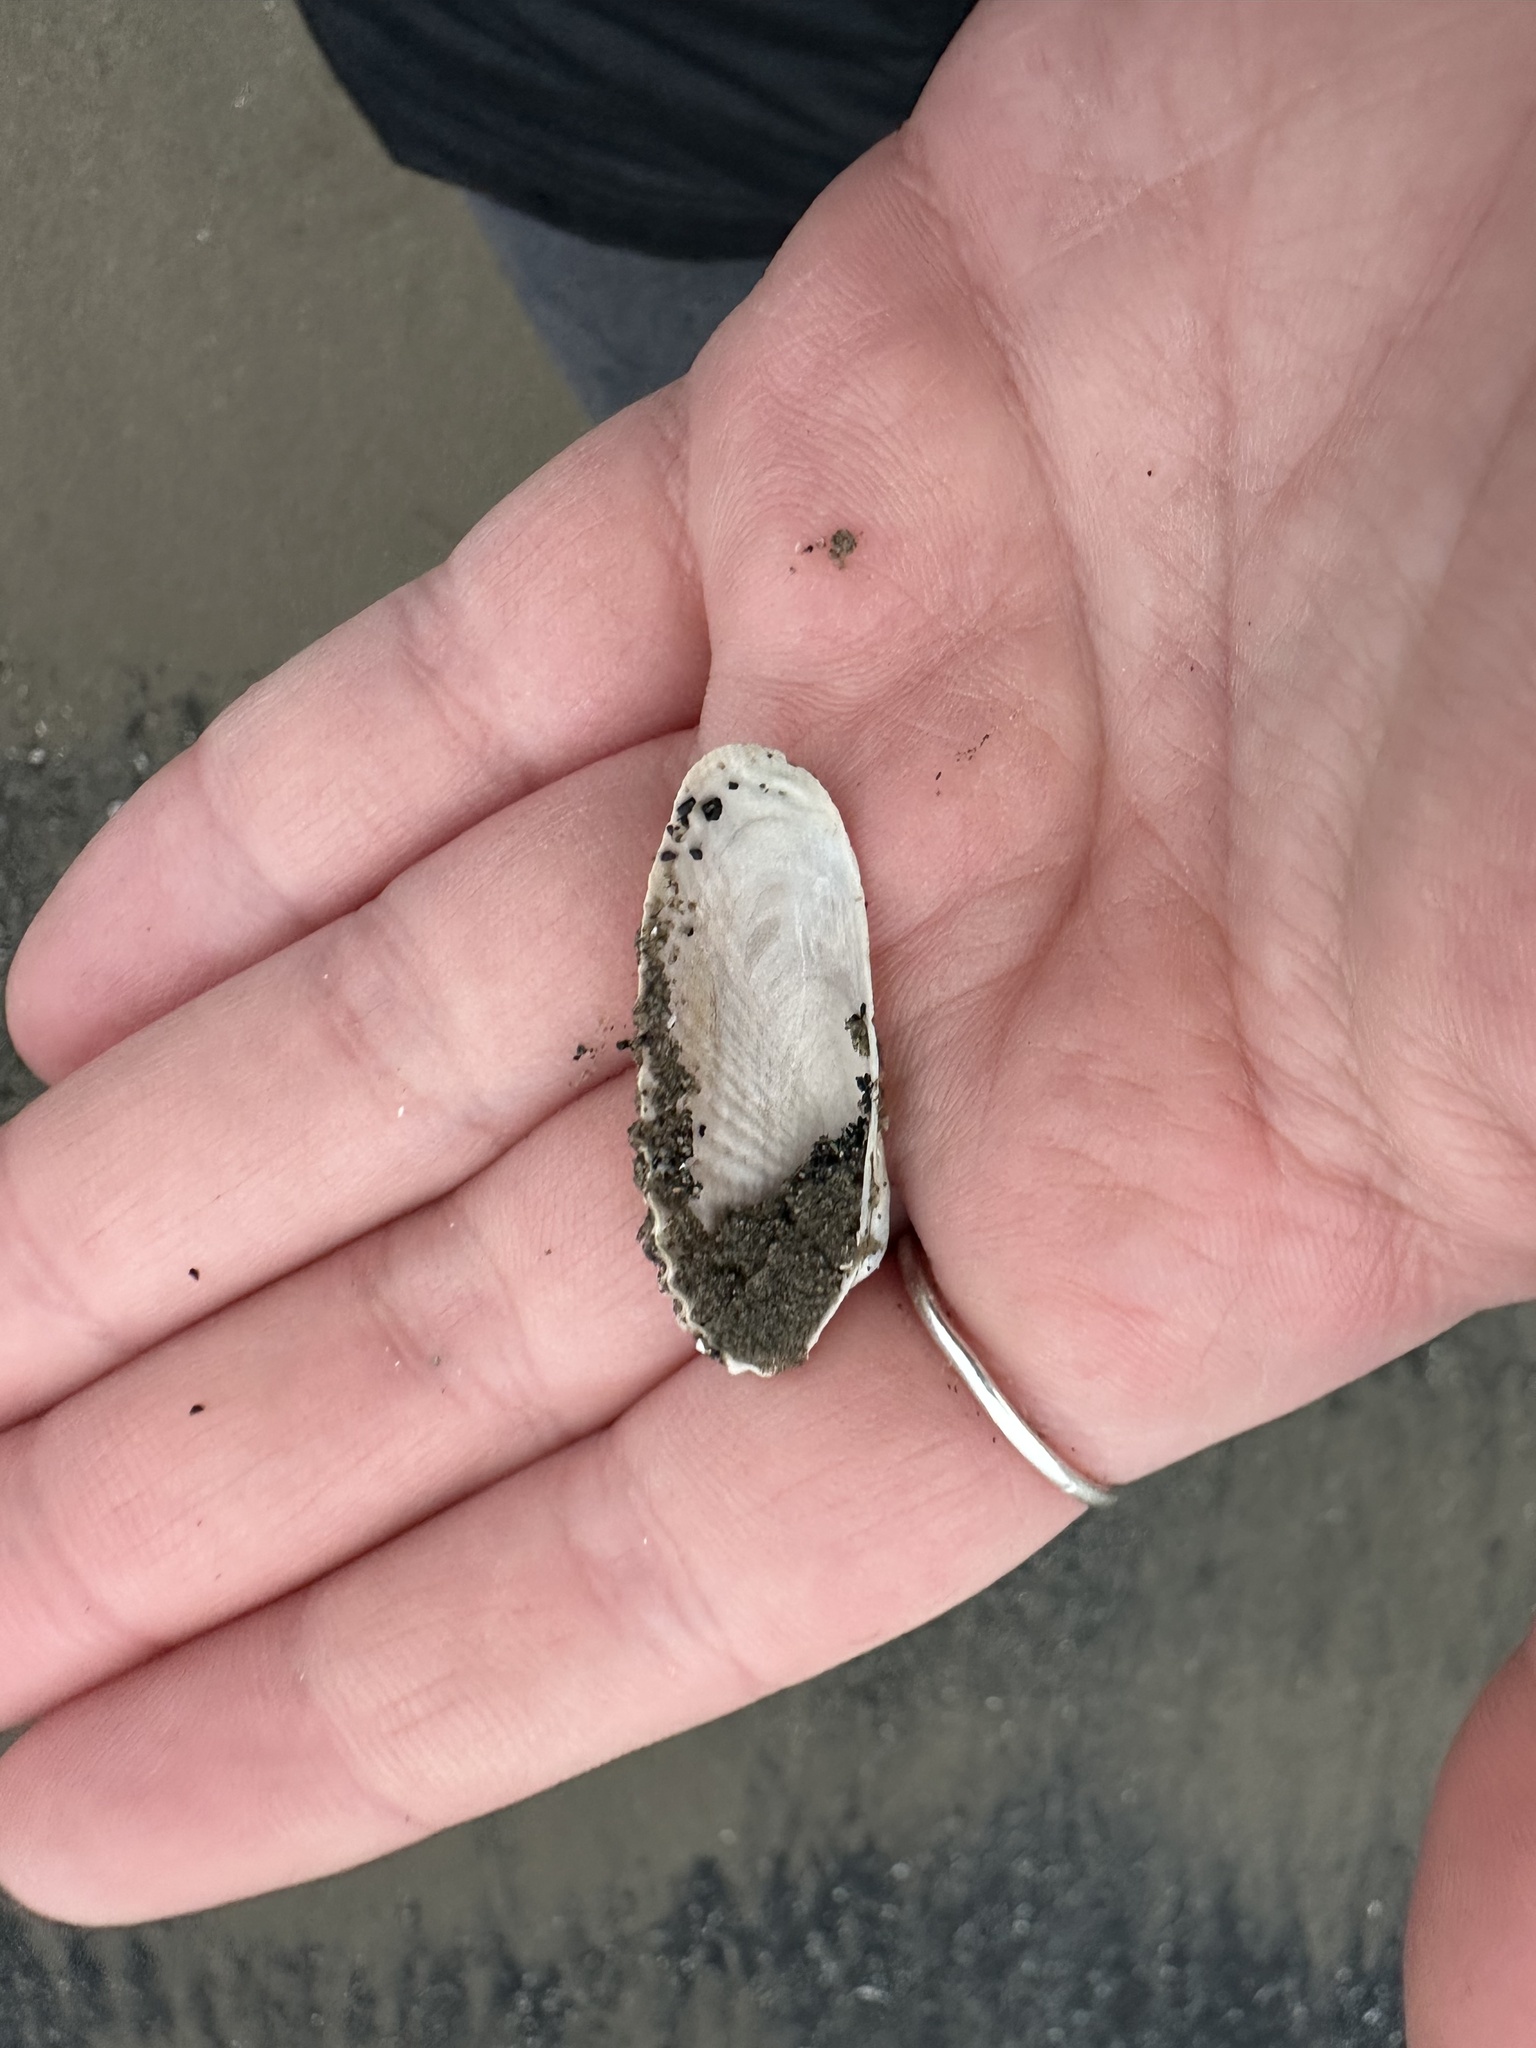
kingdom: Animalia
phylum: Mollusca
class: Bivalvia
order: Venerida
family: Veneridae
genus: Petricolaria
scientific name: Petricolaria pholadiformis
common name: American piddock
